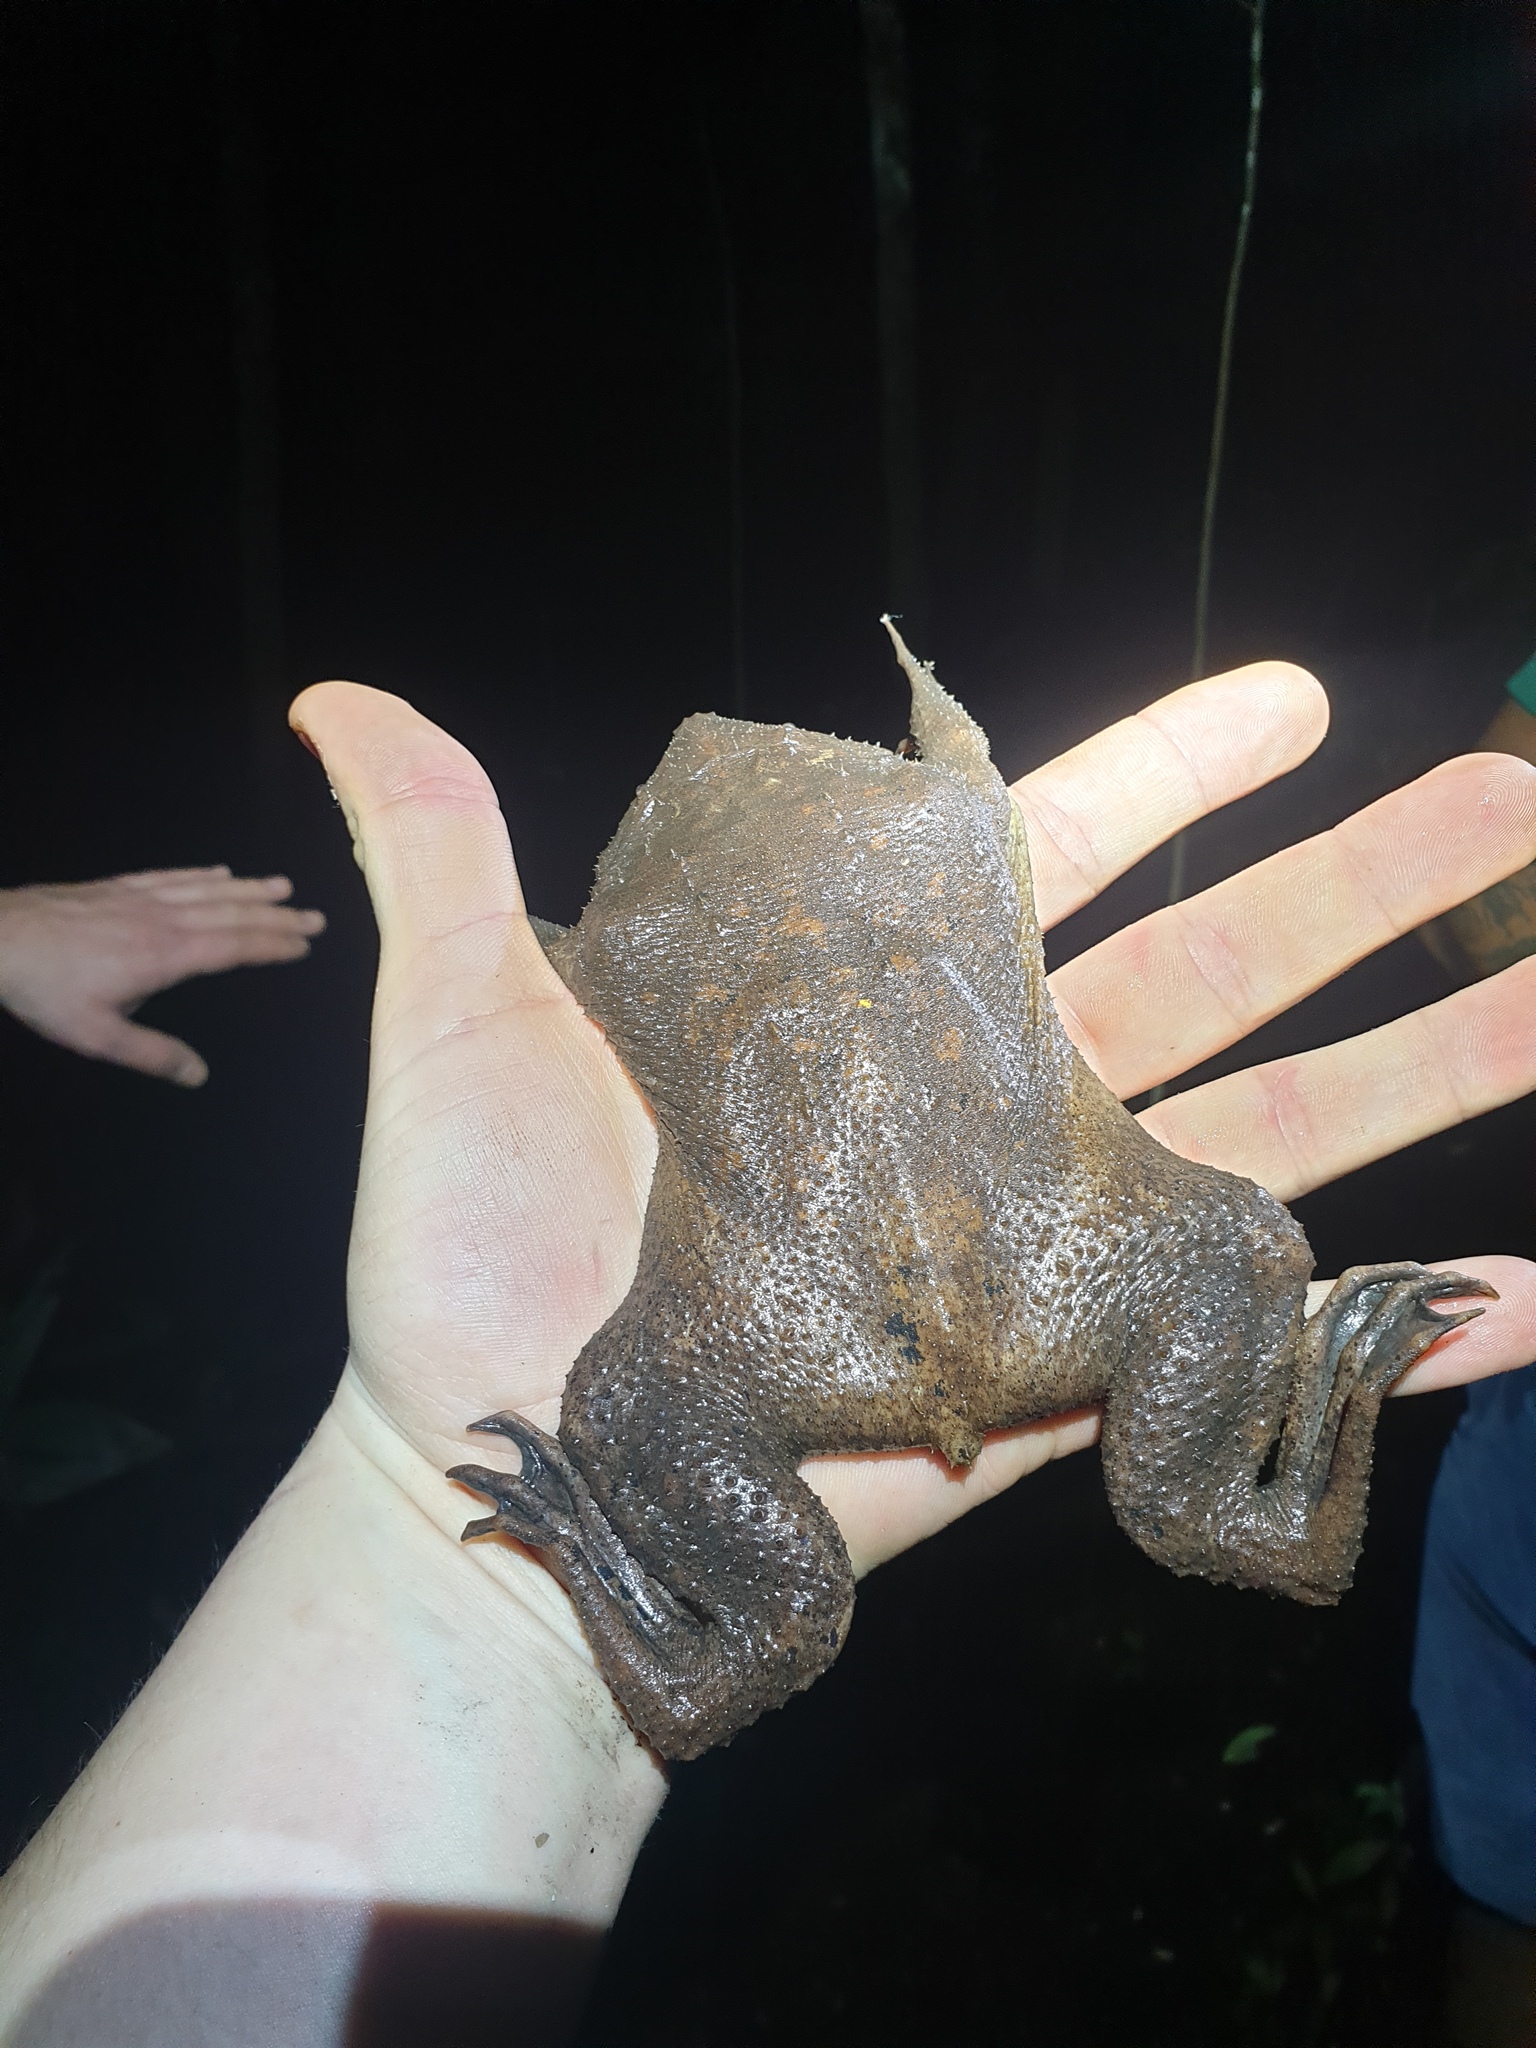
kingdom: Animalia
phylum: Chordata
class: Amphibia
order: Anura
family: Pipidae
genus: Pipa
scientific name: Pipa pipa
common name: Surinam toad
